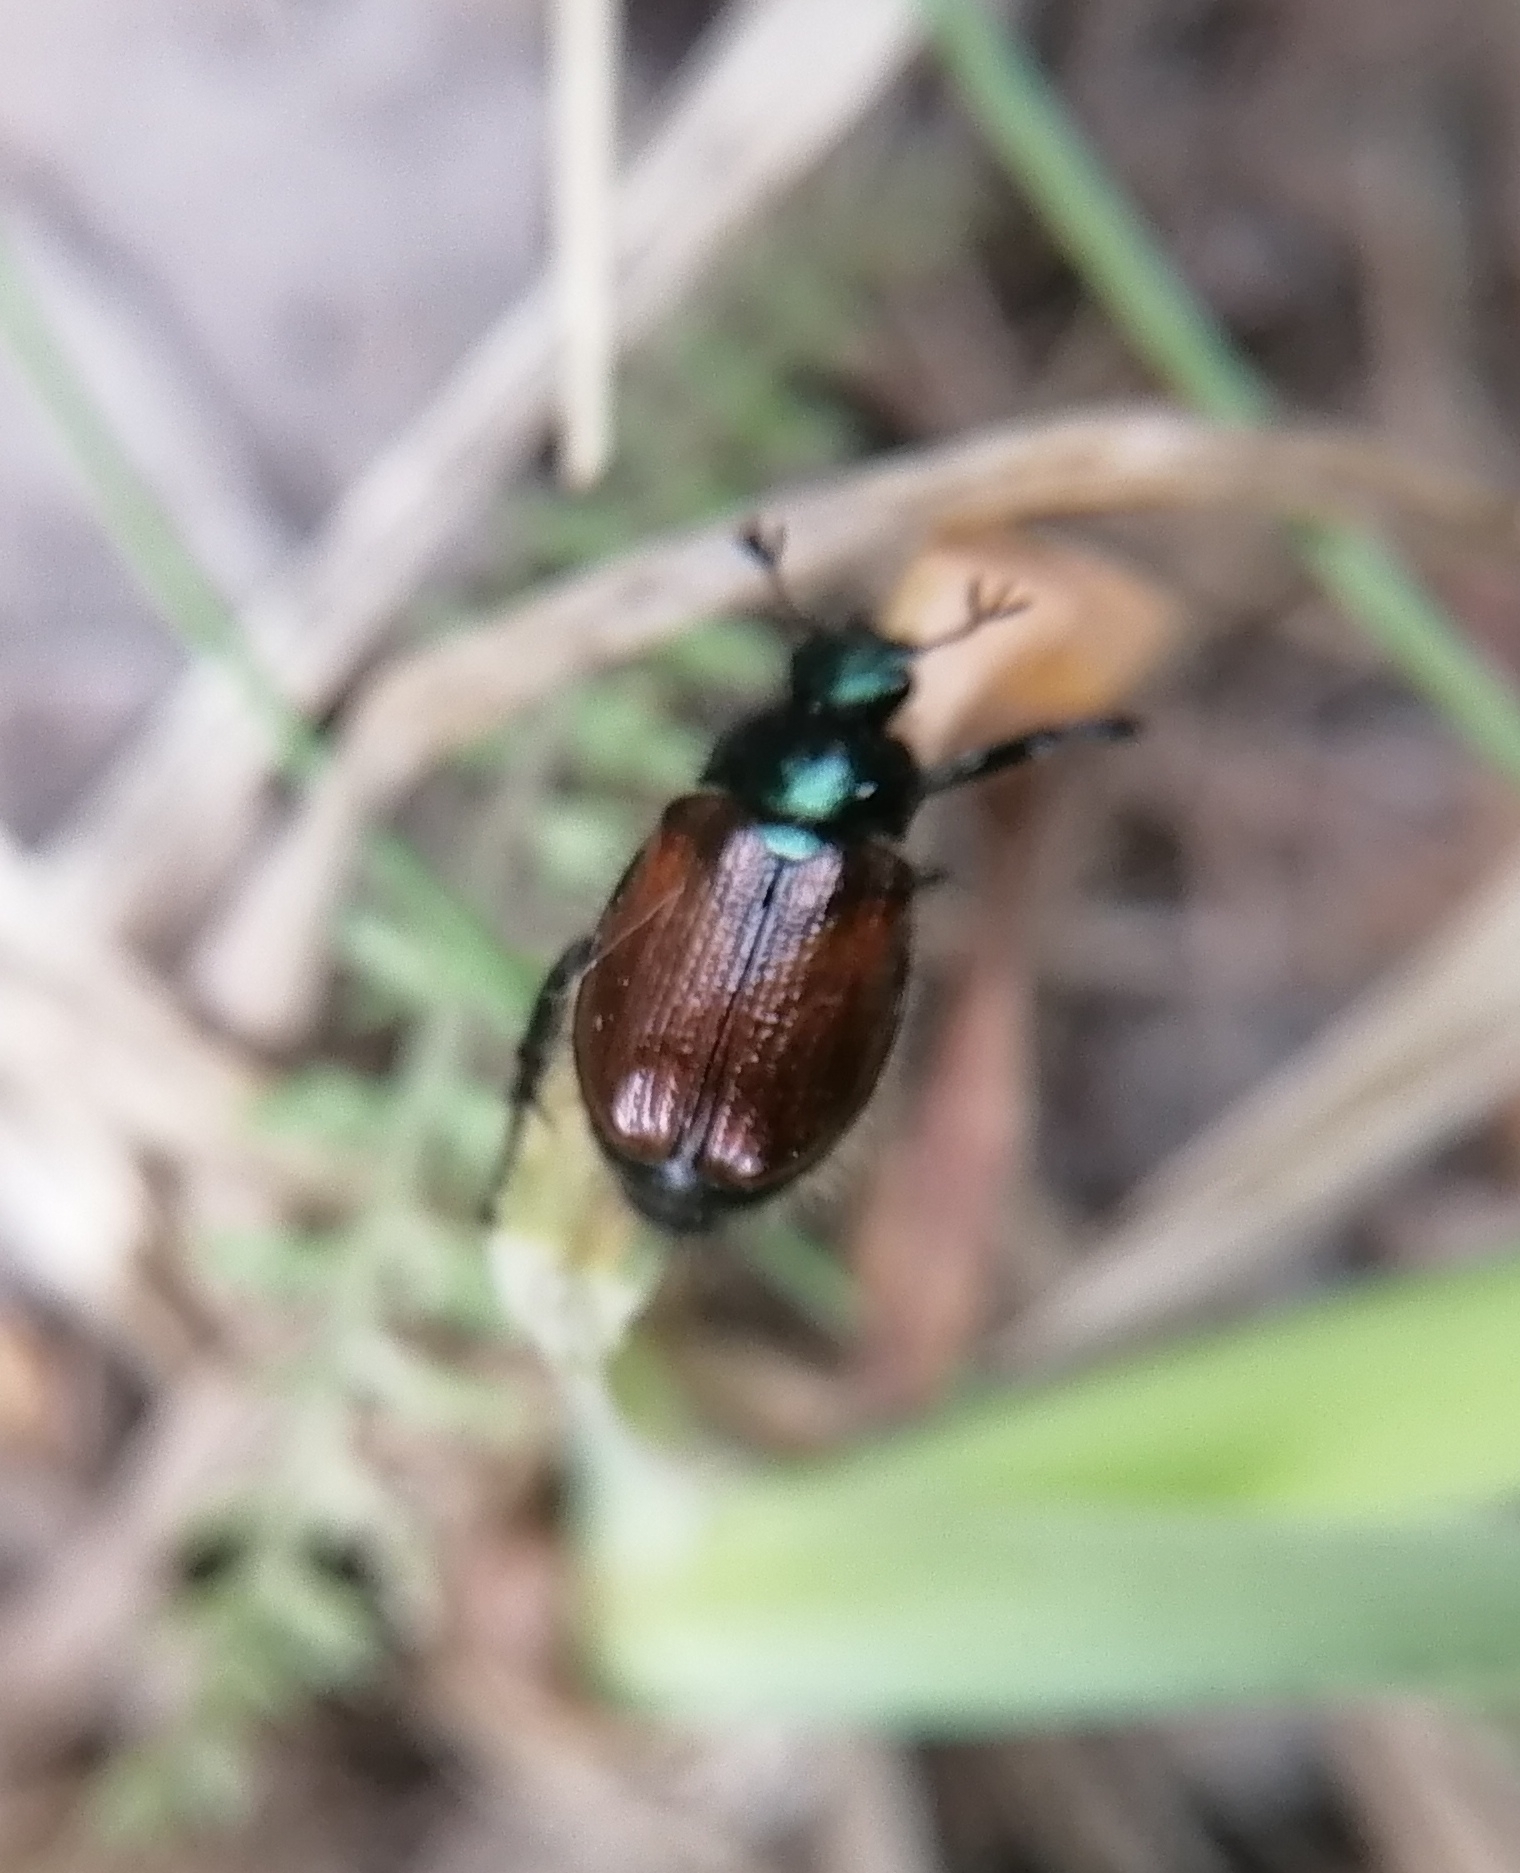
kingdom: Animalia
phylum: Arthropoda
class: Insecta
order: Coleoptera
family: Scarabaeidae
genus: Phyllopertha
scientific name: Phyllopertha horticola
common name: Garden chafer
